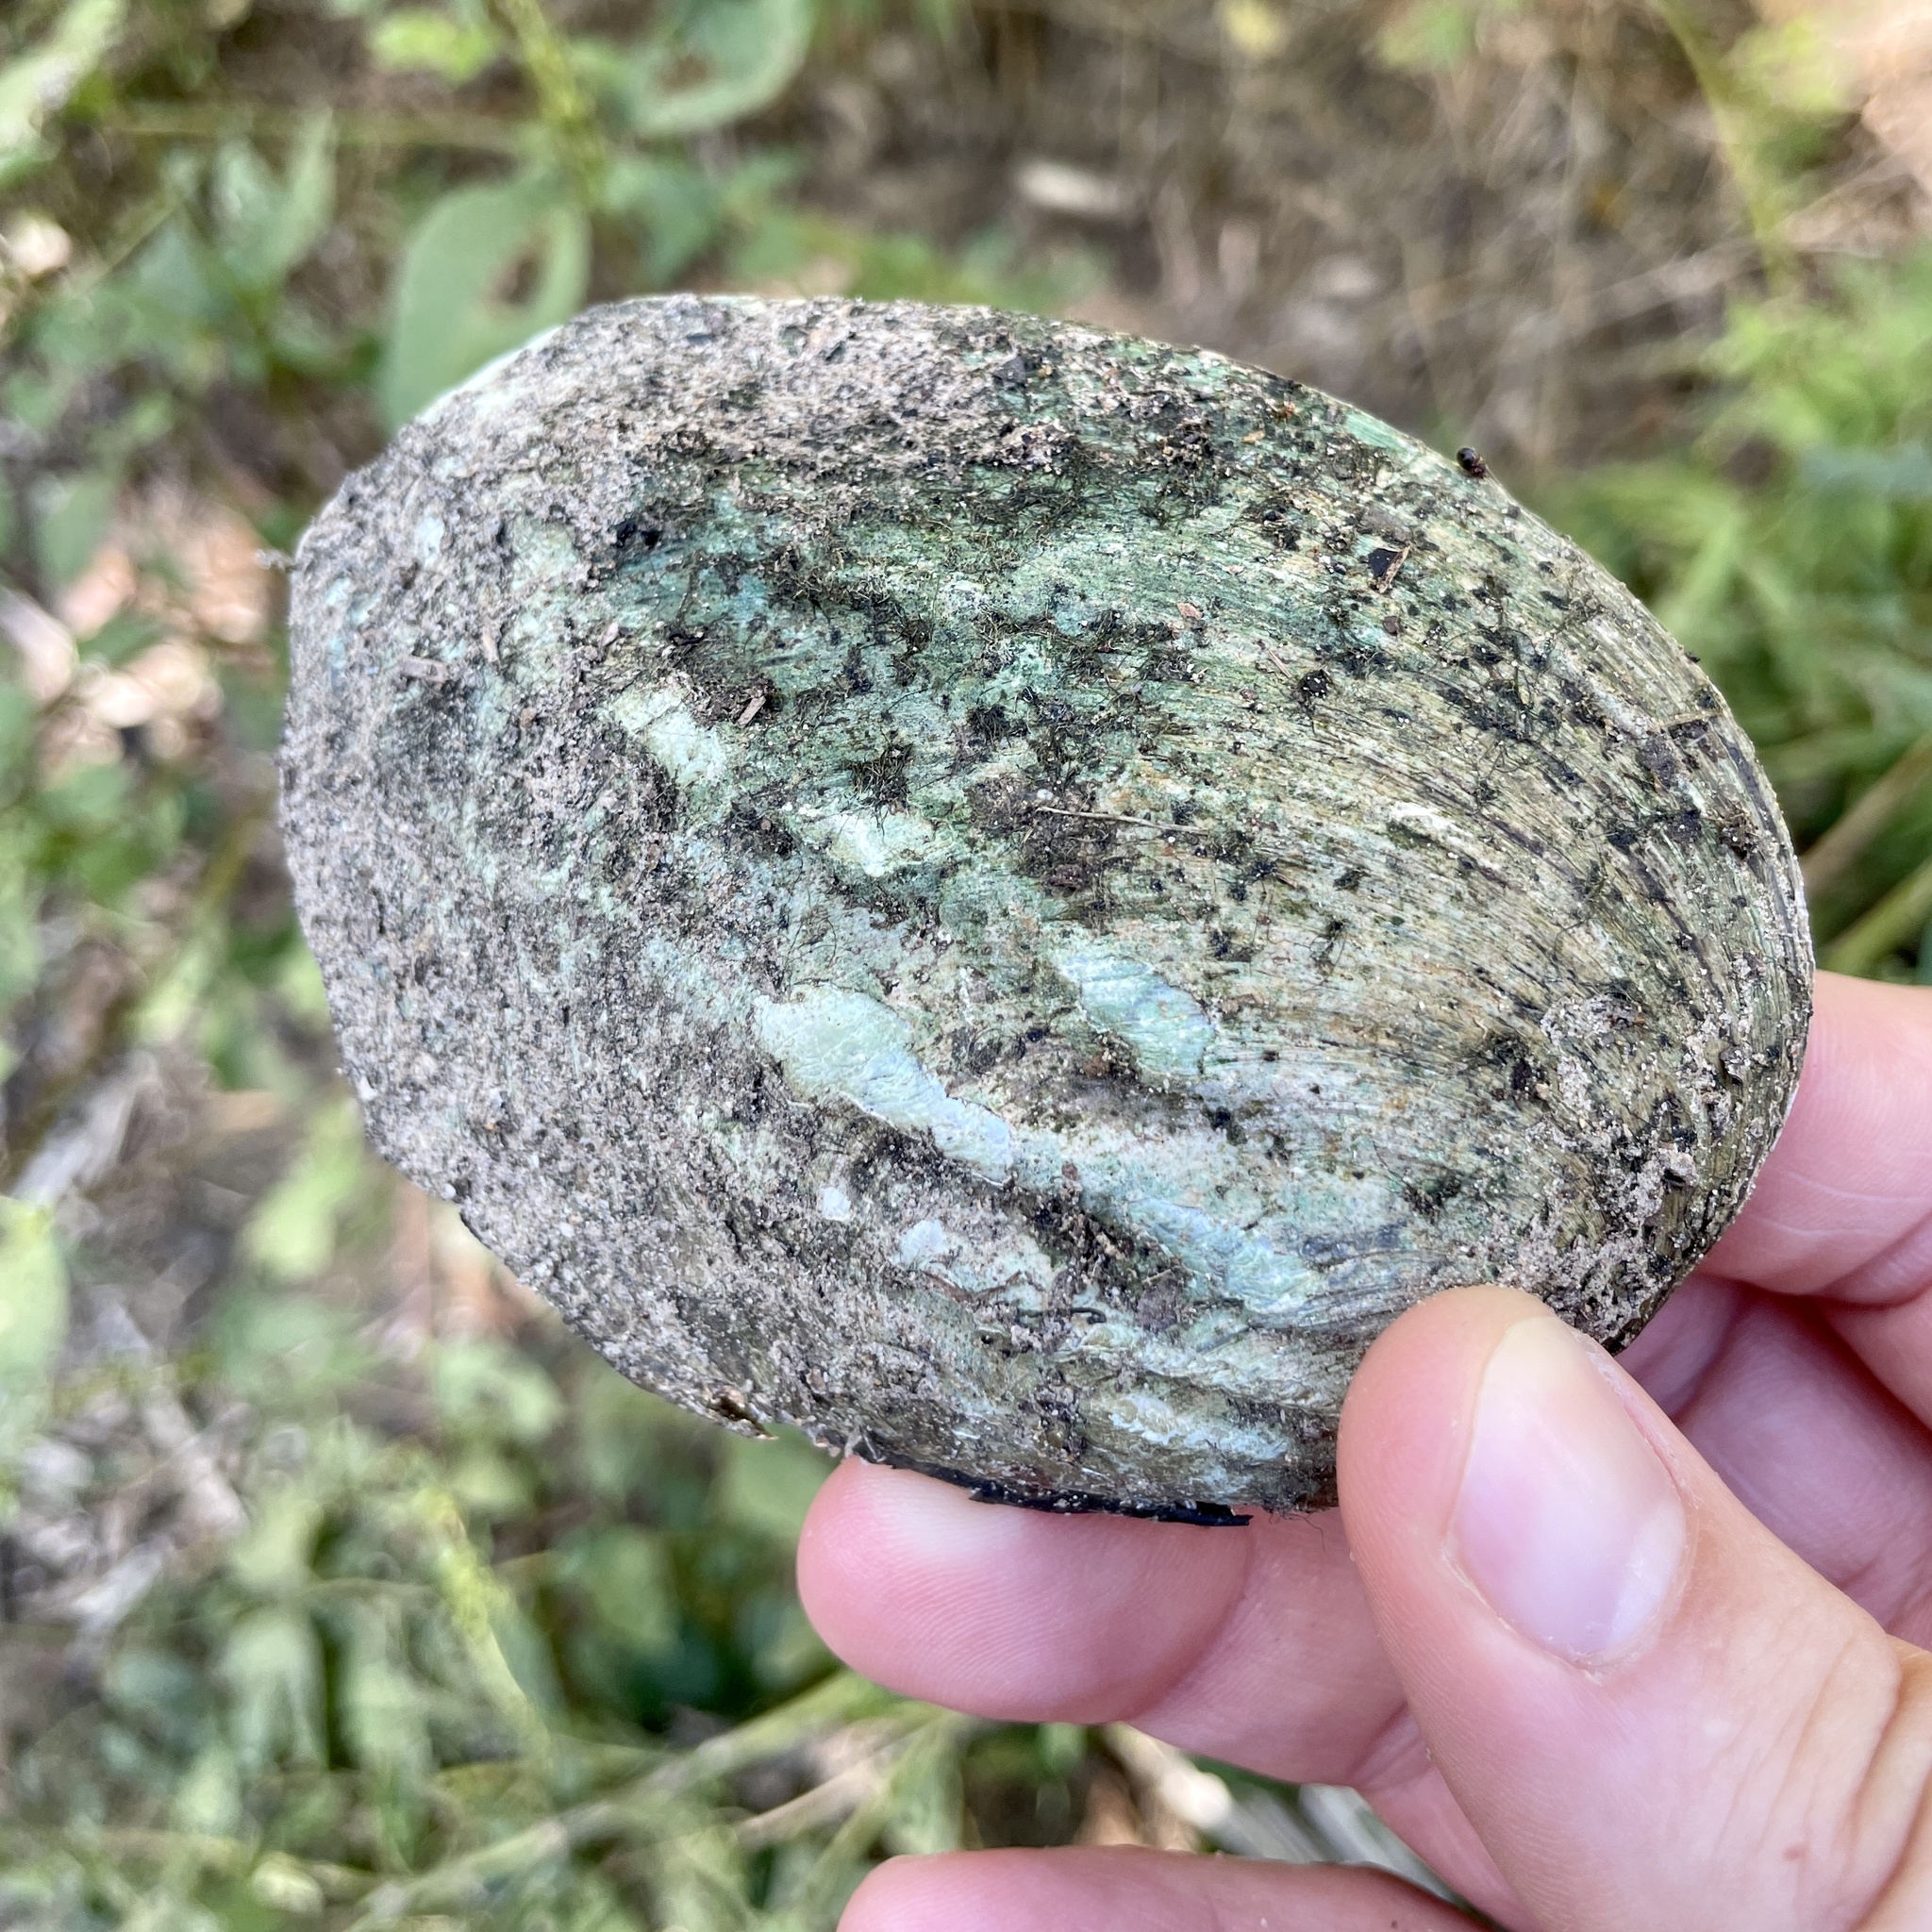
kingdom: Animalia
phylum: Mollusca
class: Bivalvia
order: Unionida
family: Unionidae
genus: Amblema
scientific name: Amblema plicata
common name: Threeridge
